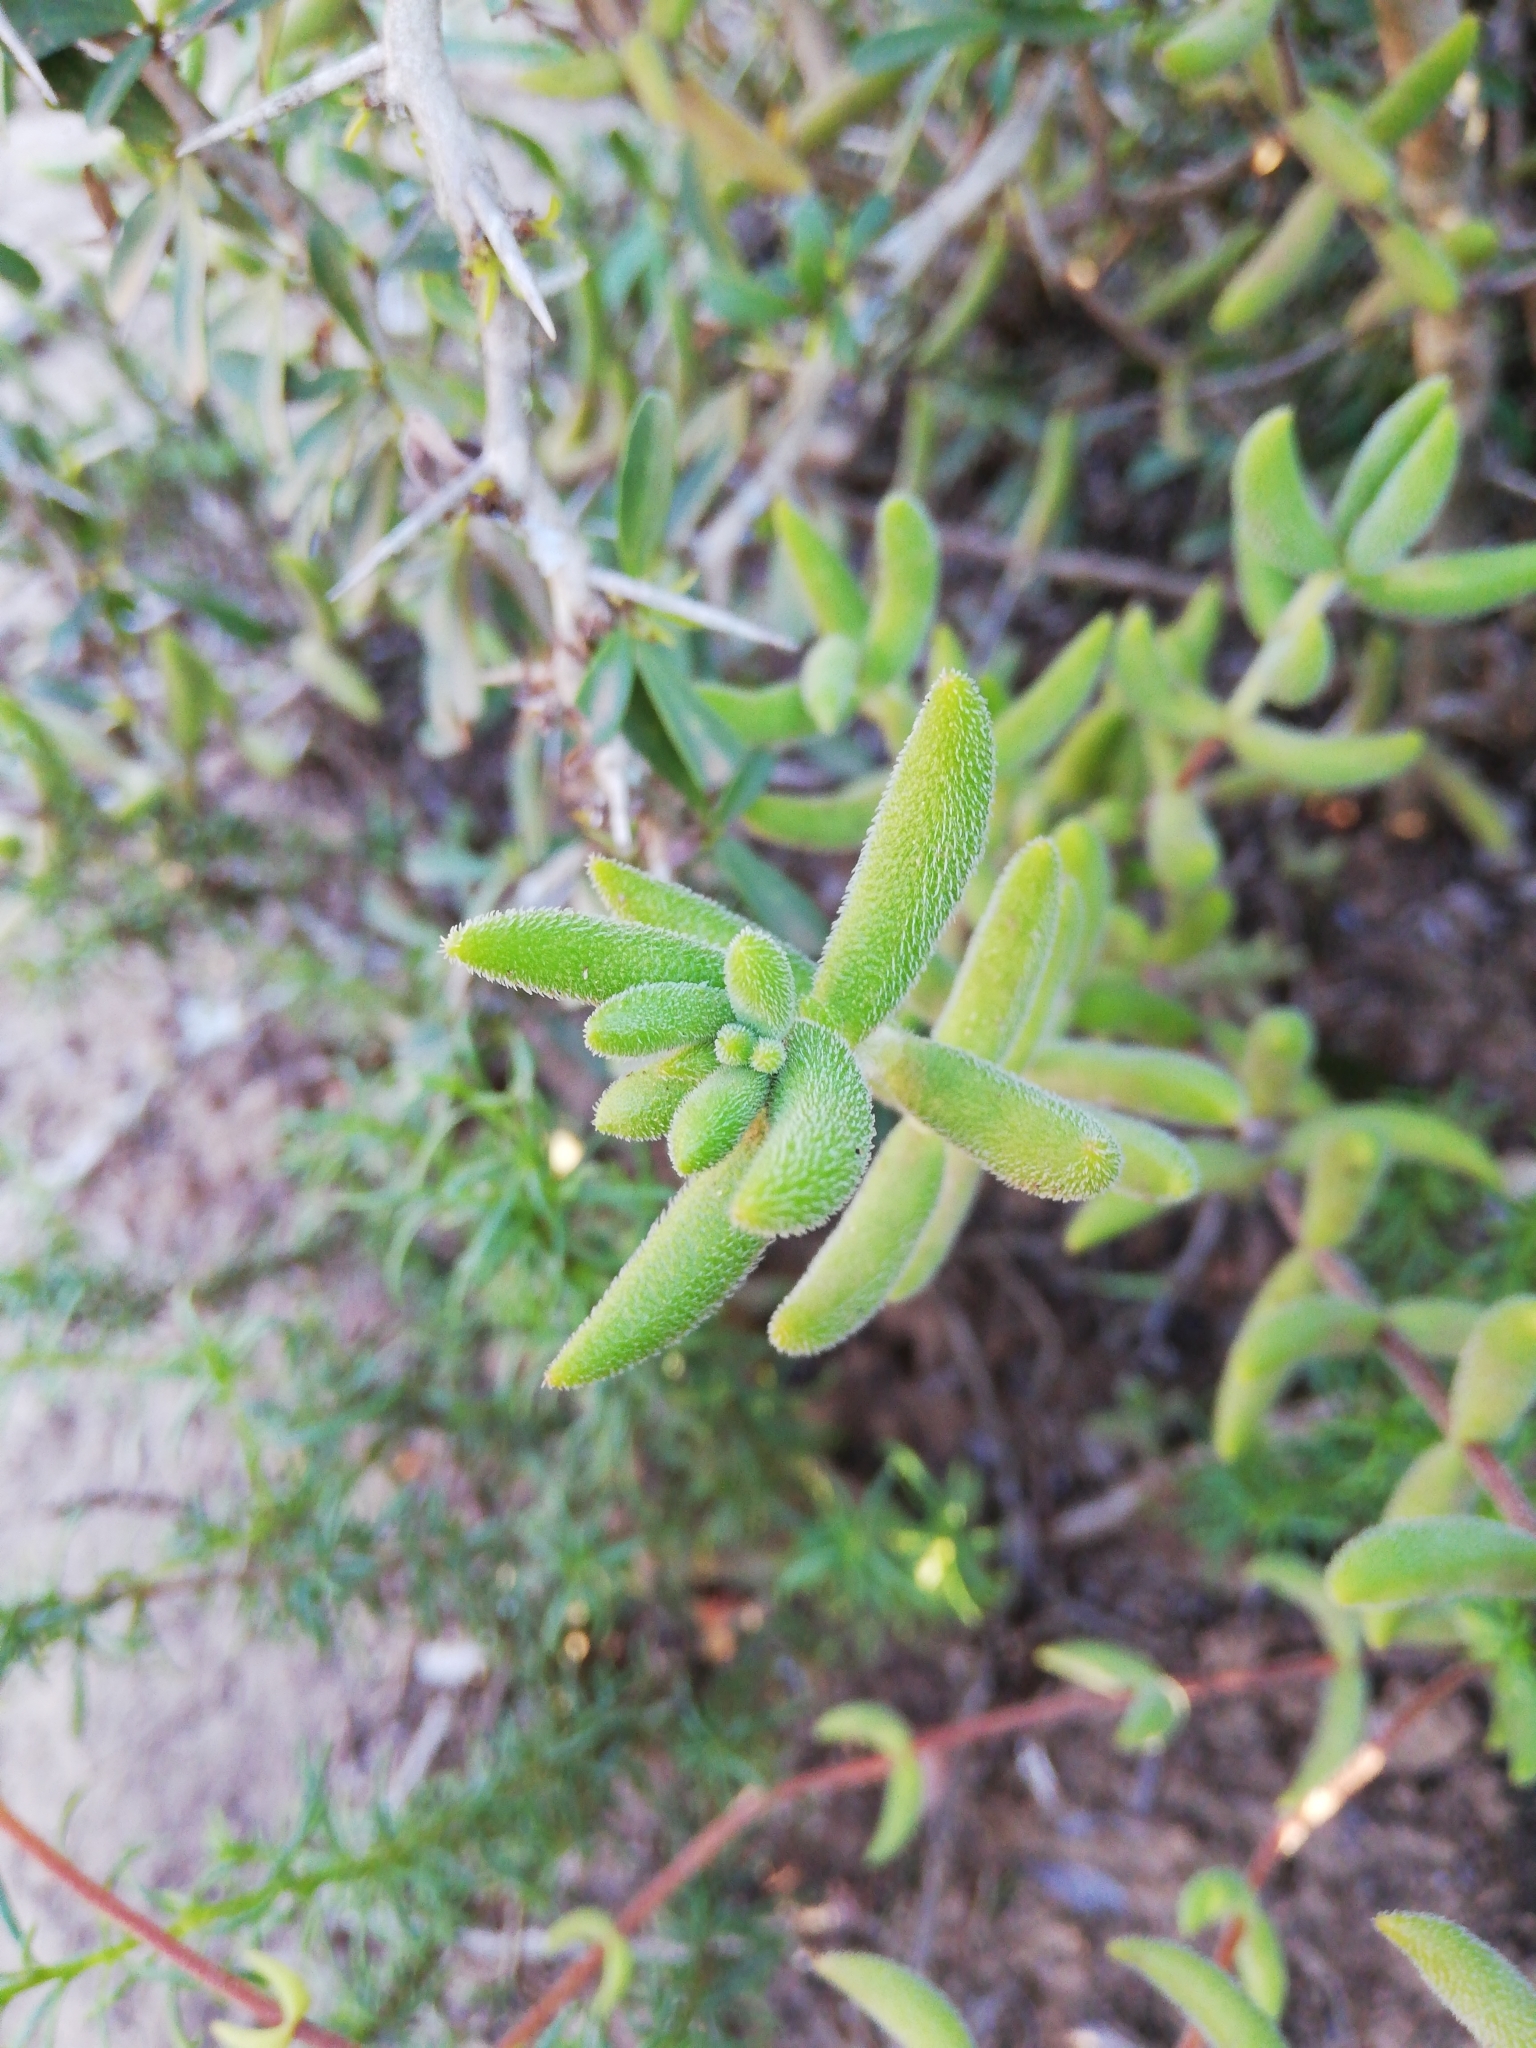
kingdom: Plantae
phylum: Tracheophyta
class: Magnoliopsida
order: Saxifragales
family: Crassulaceae
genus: Crassula
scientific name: Crassula mesembryanthoides
